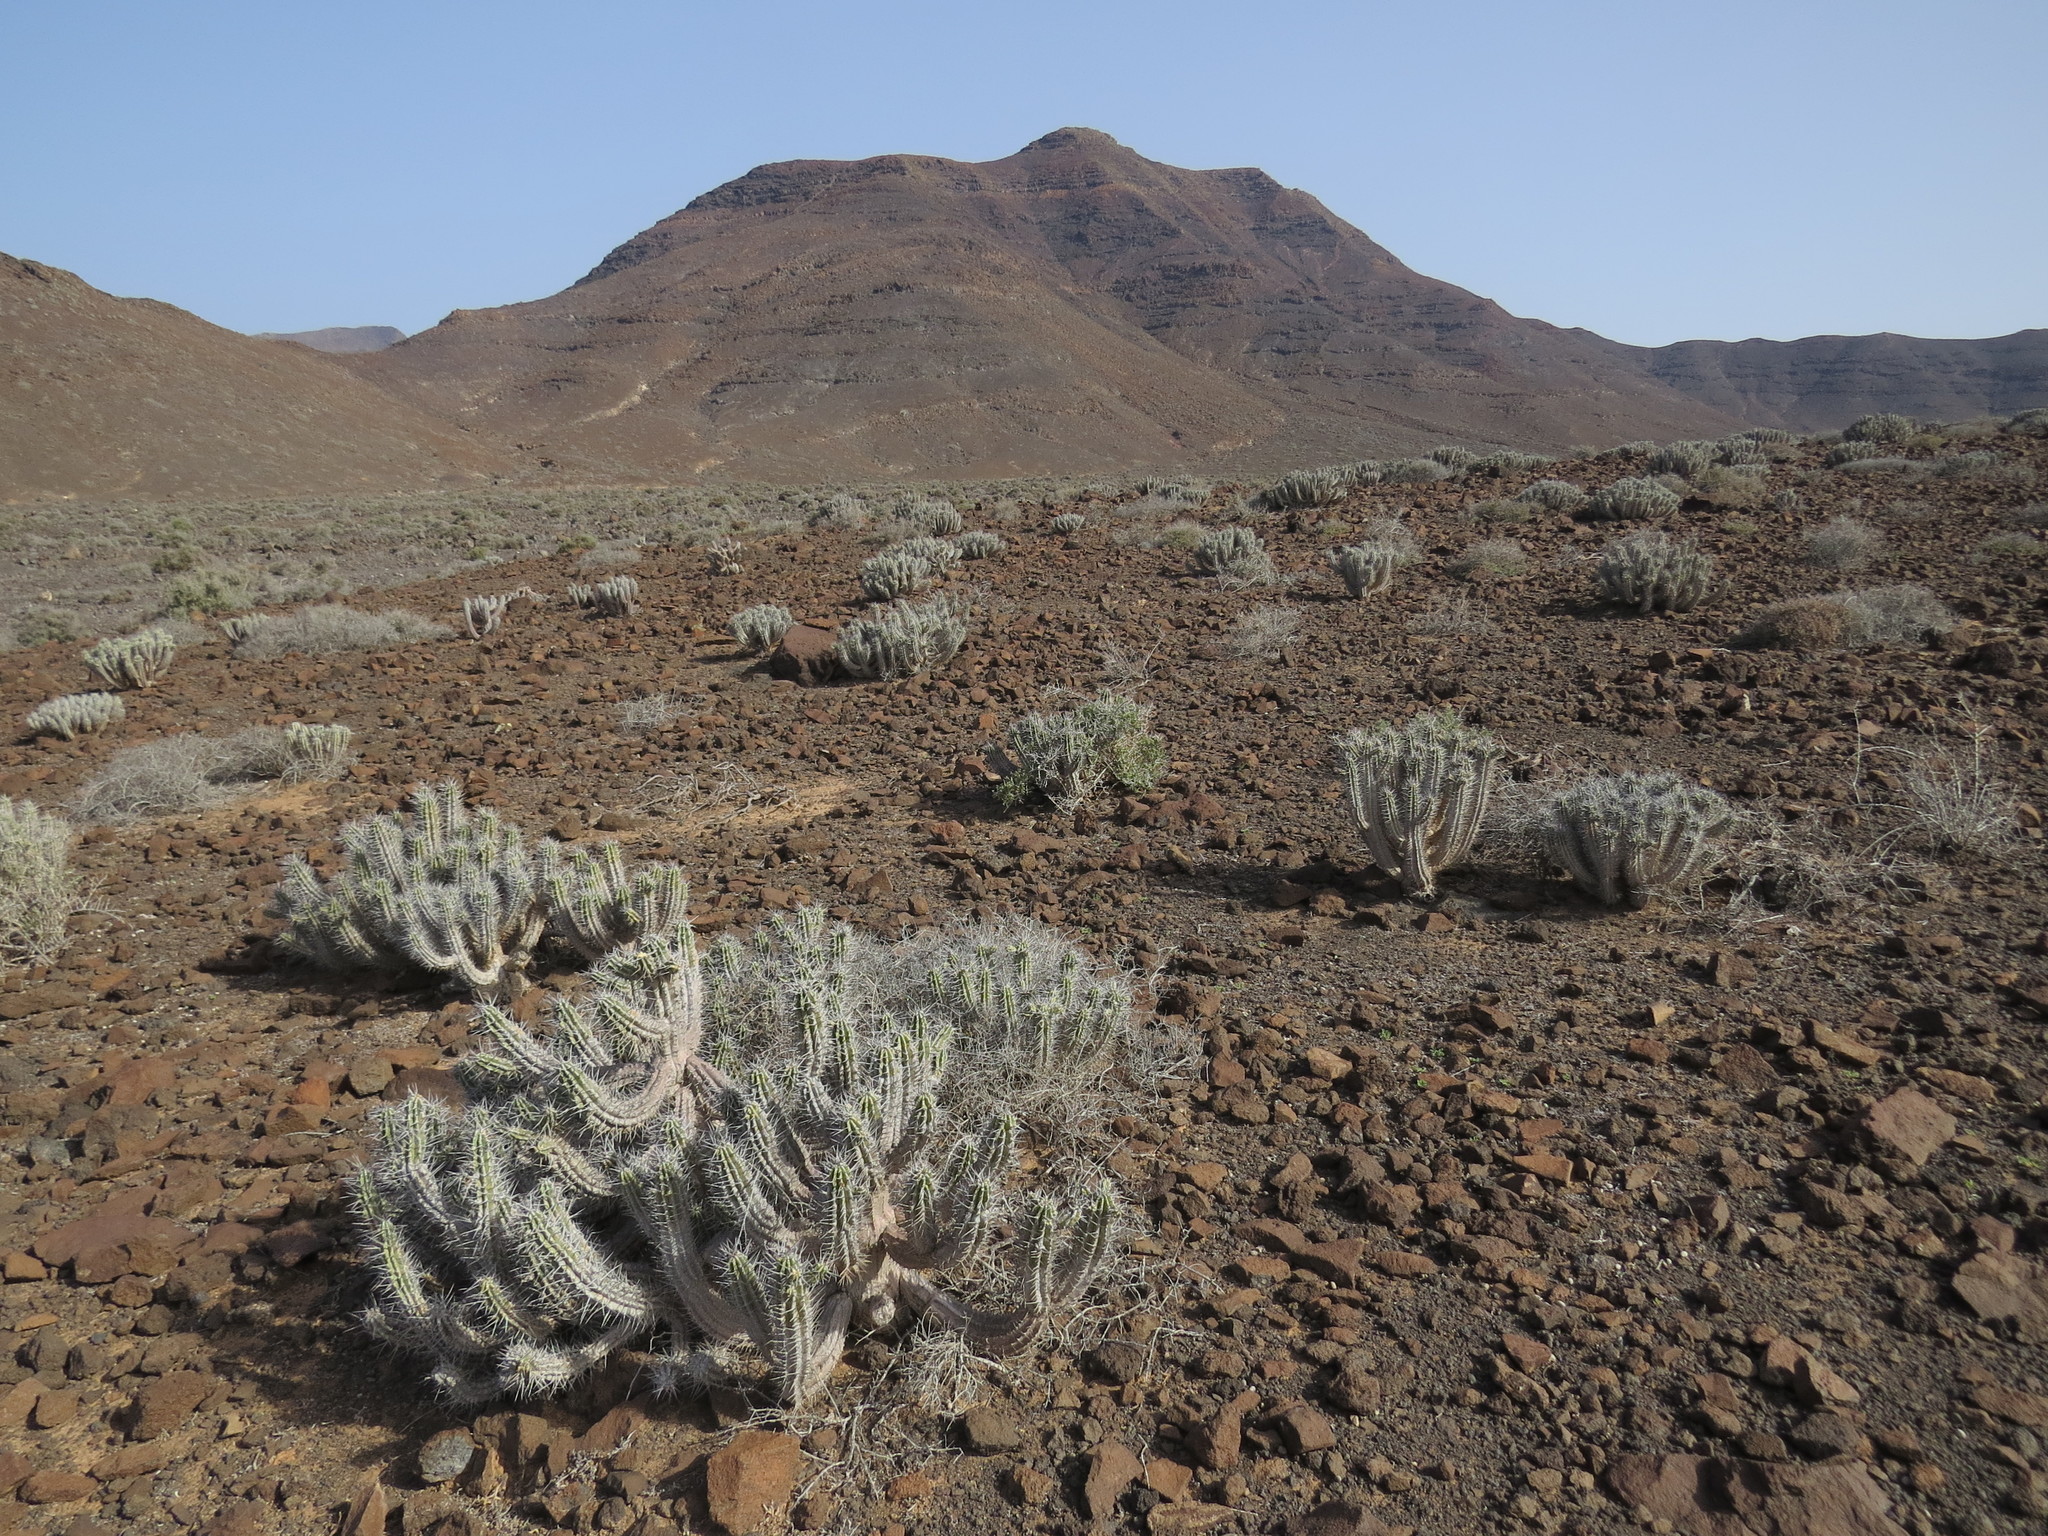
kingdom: Plantae
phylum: Tracheophyta
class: Magnoliopsida
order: Malpighiales
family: Euphorbiaceae
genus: Euphorbia
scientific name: Euphorbia handiensis
